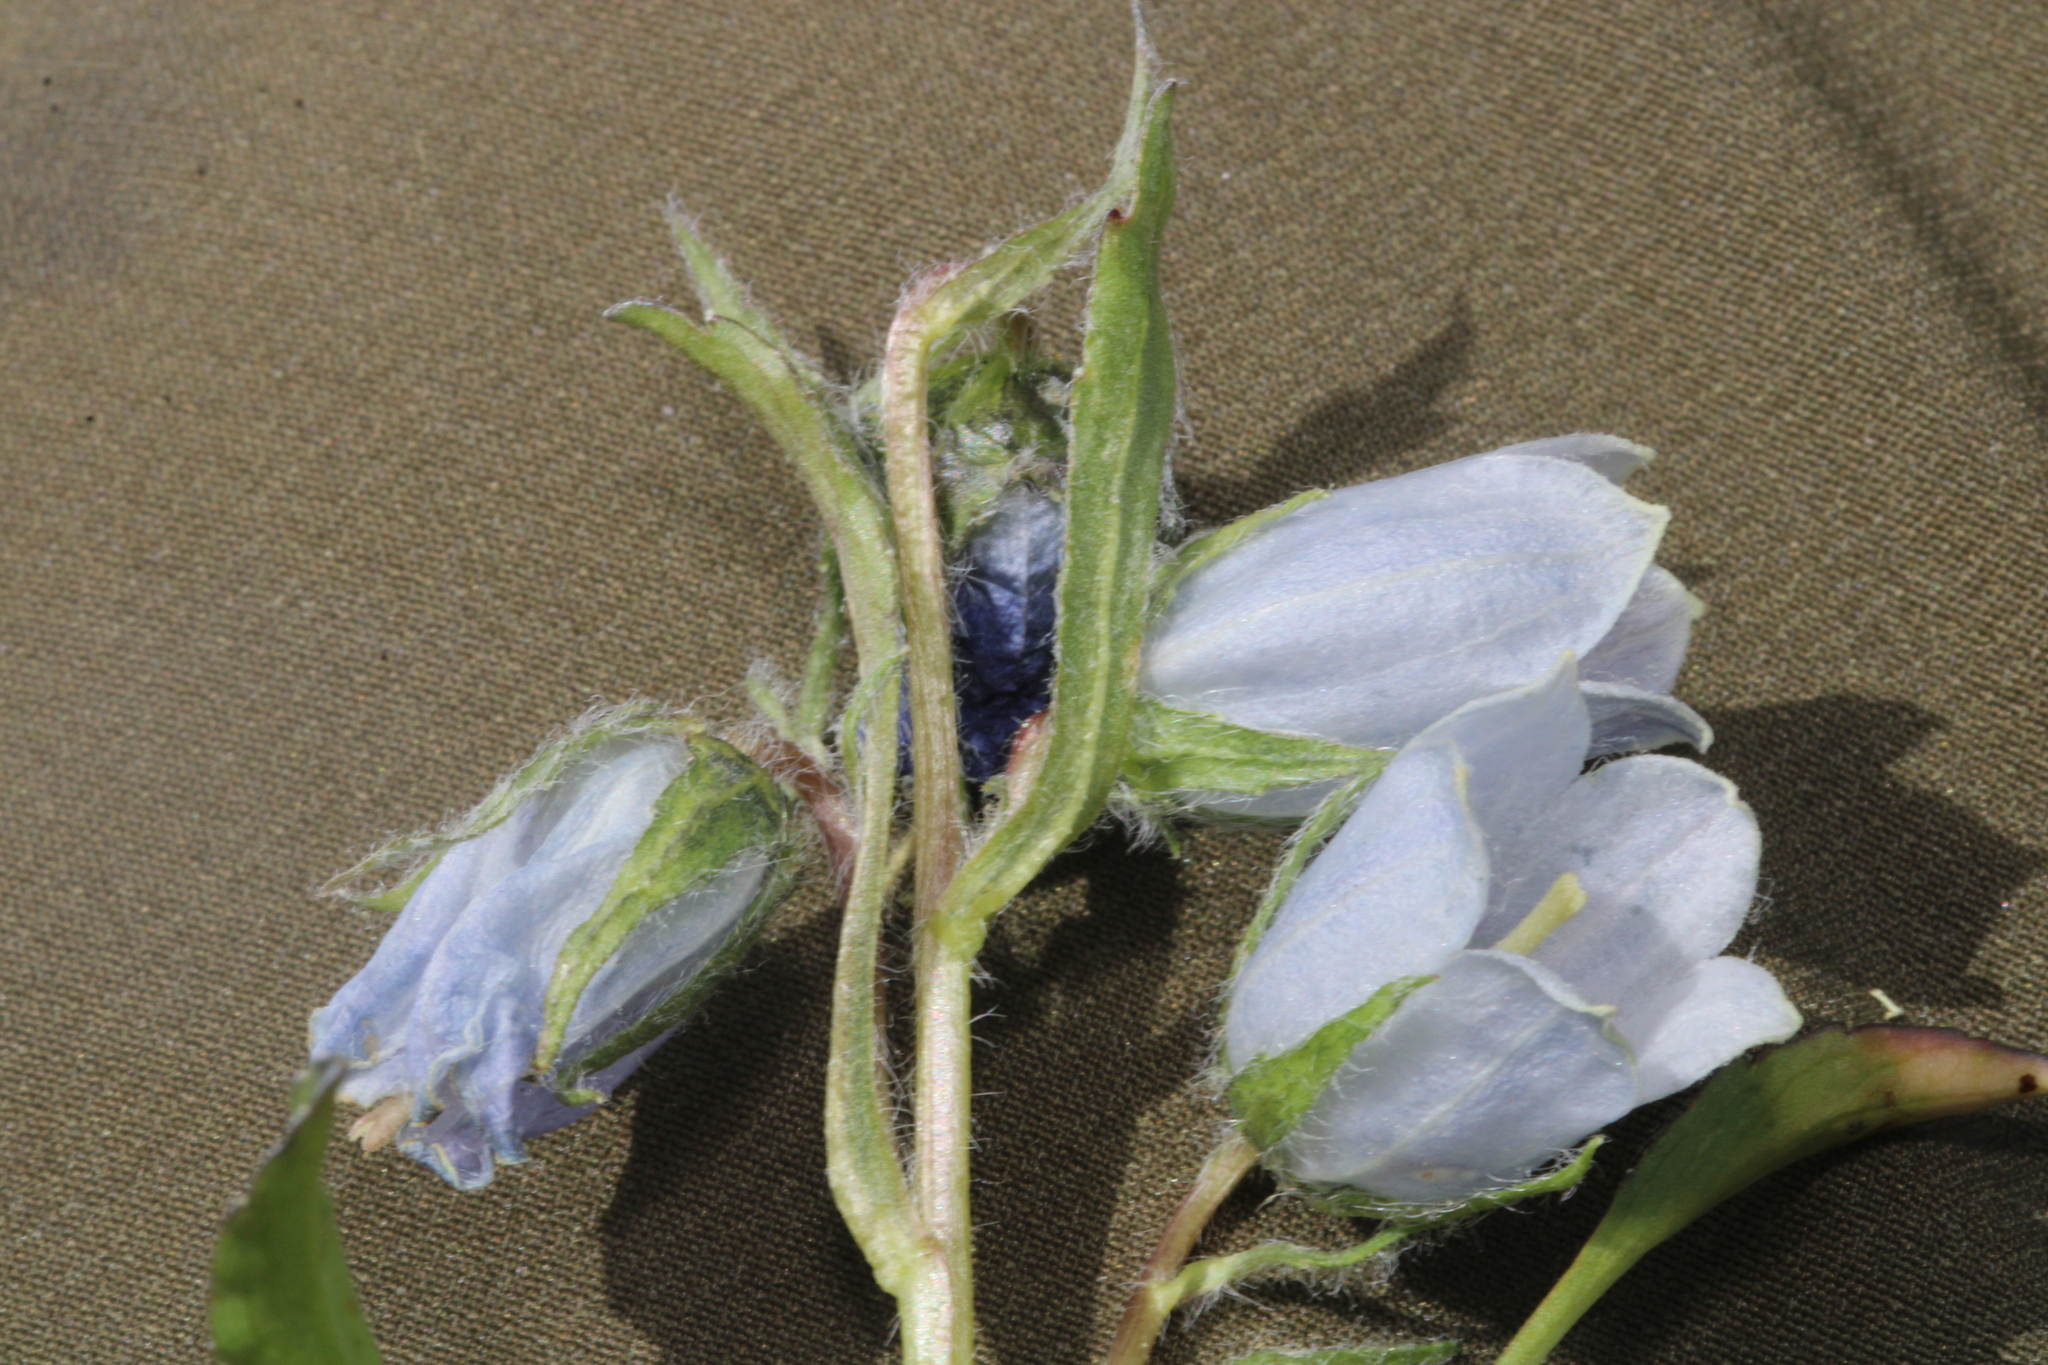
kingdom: Plantae
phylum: Tracheophyta
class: Magnoliopsida
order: Asterales
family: Campanulaceae
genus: Campanula
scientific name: Campanula alpina
